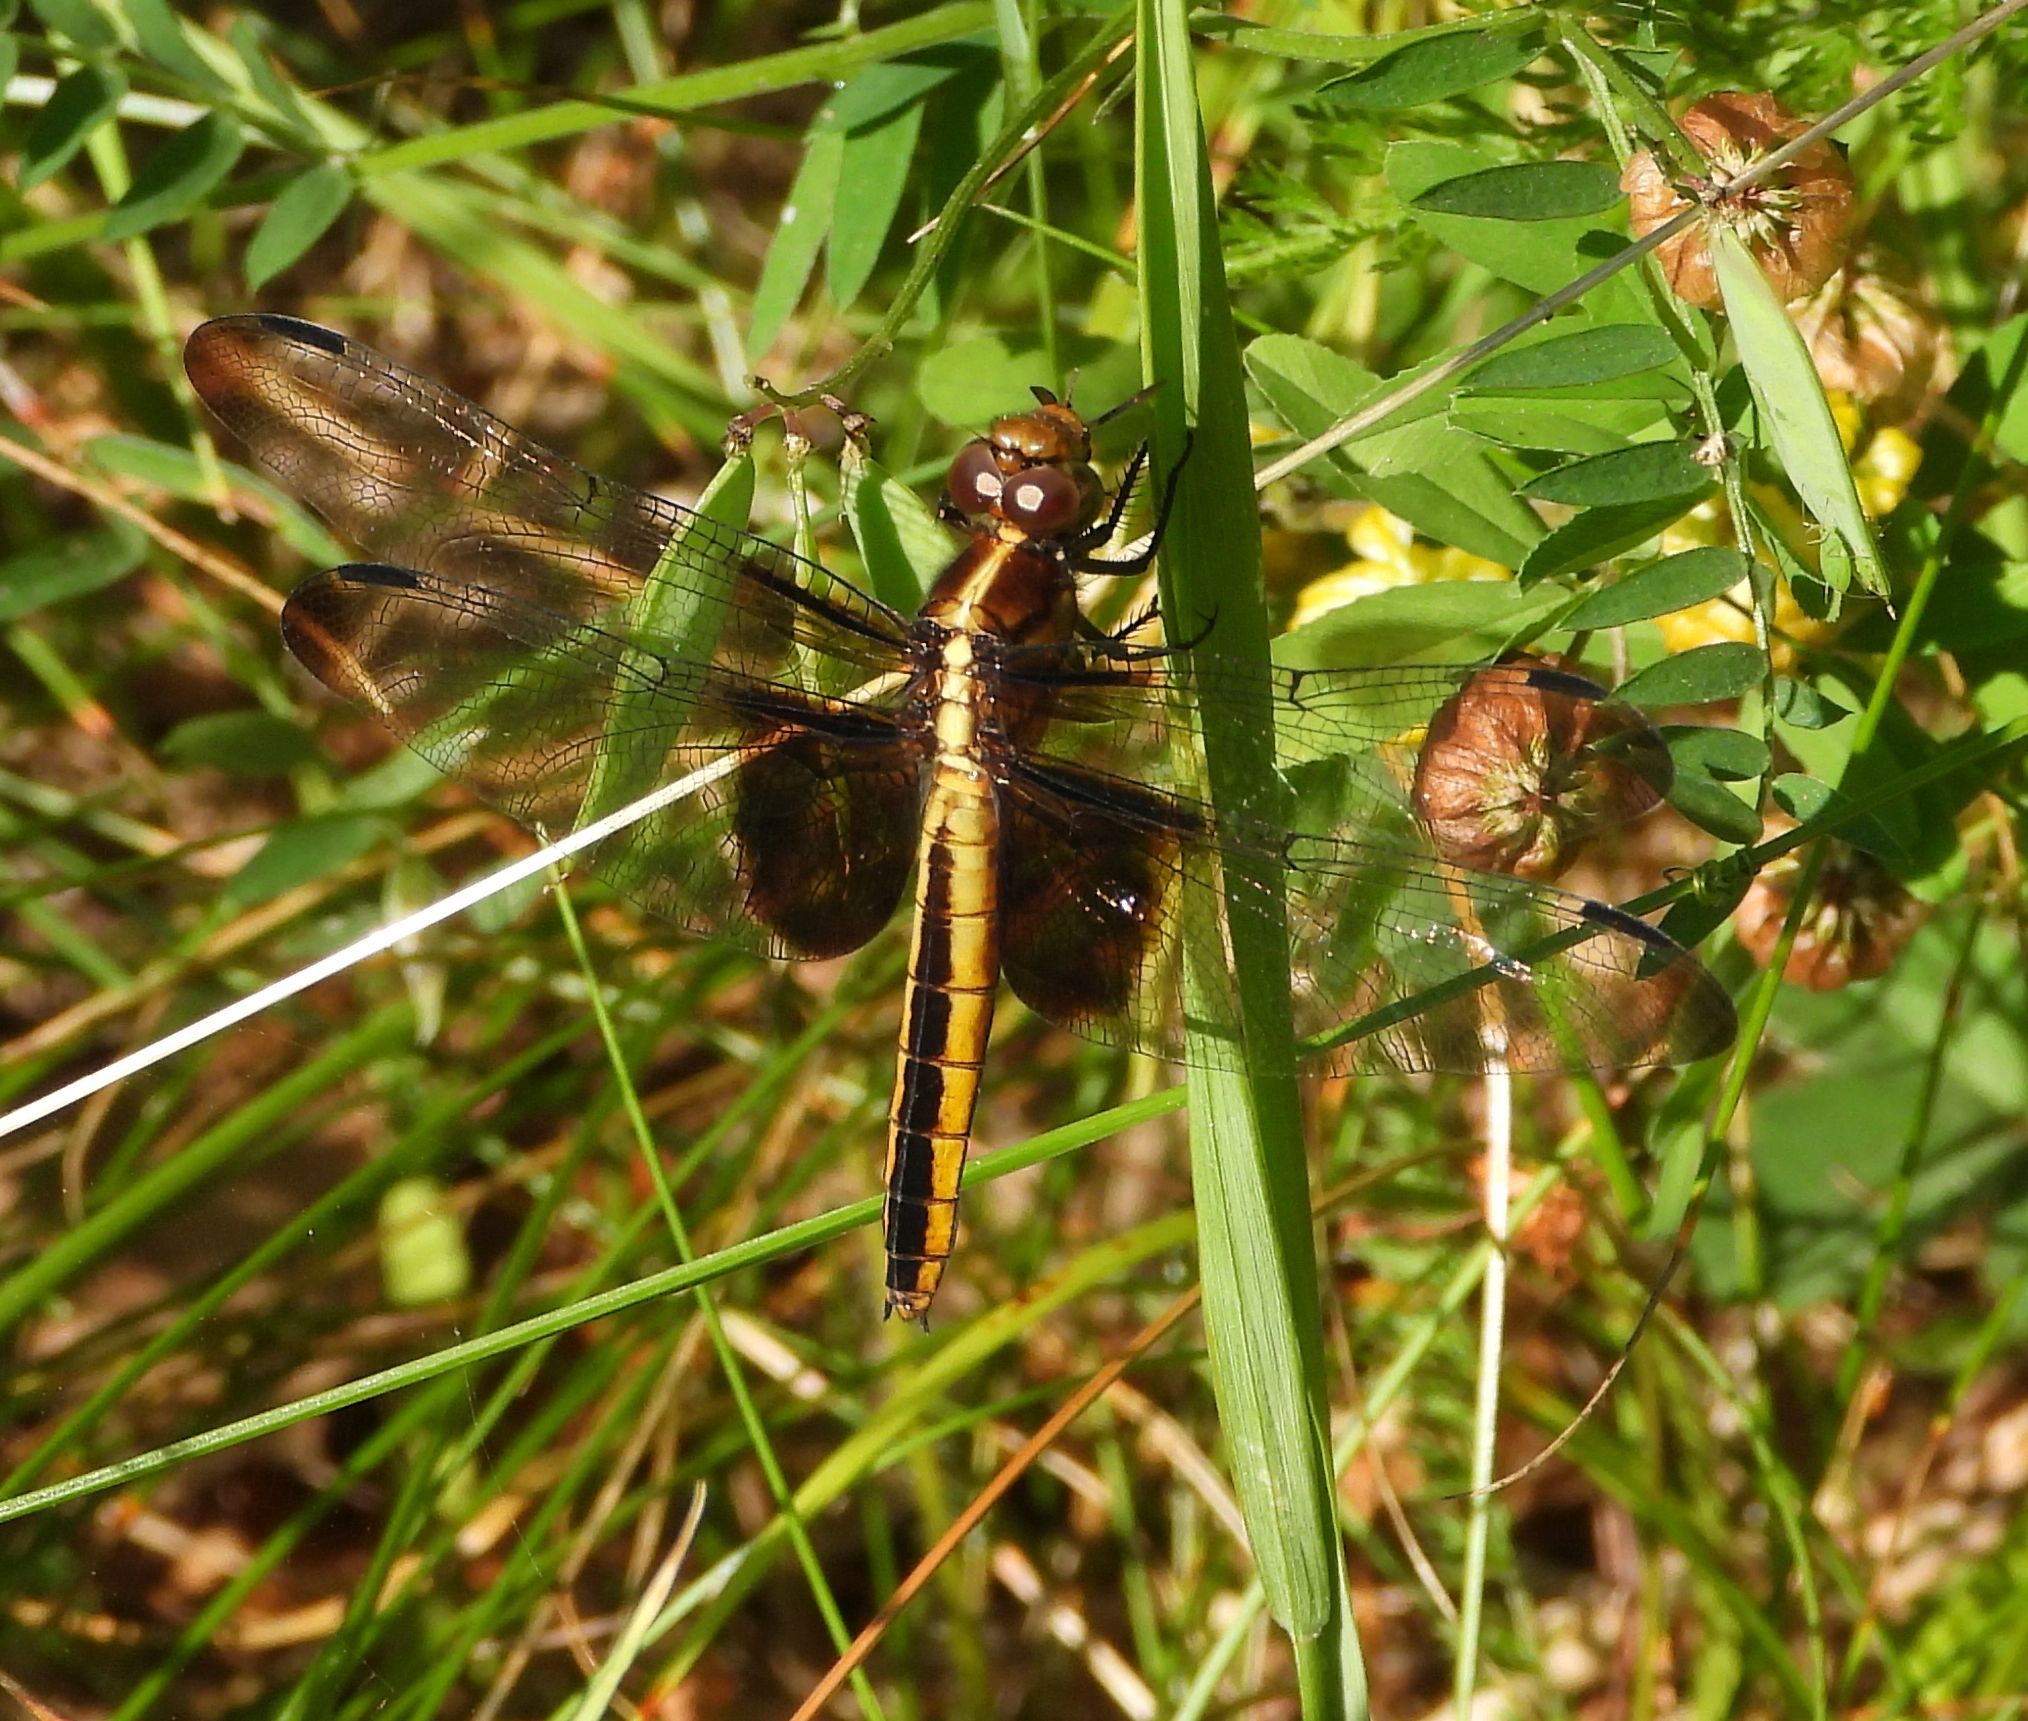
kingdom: Animalia
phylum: Arthropoda
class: Insecta
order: Odonata
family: Libellulidae
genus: Libellula
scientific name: Libellula luctuosa
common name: Widow skimmer
